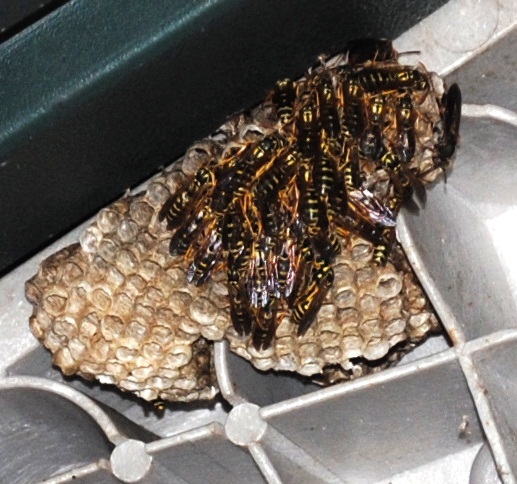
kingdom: Animalia
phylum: Arthropoda
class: Insecta
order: Hymenoptera
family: Eumenidae
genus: Polistes
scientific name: Polistes dominula
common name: Paper wasp
